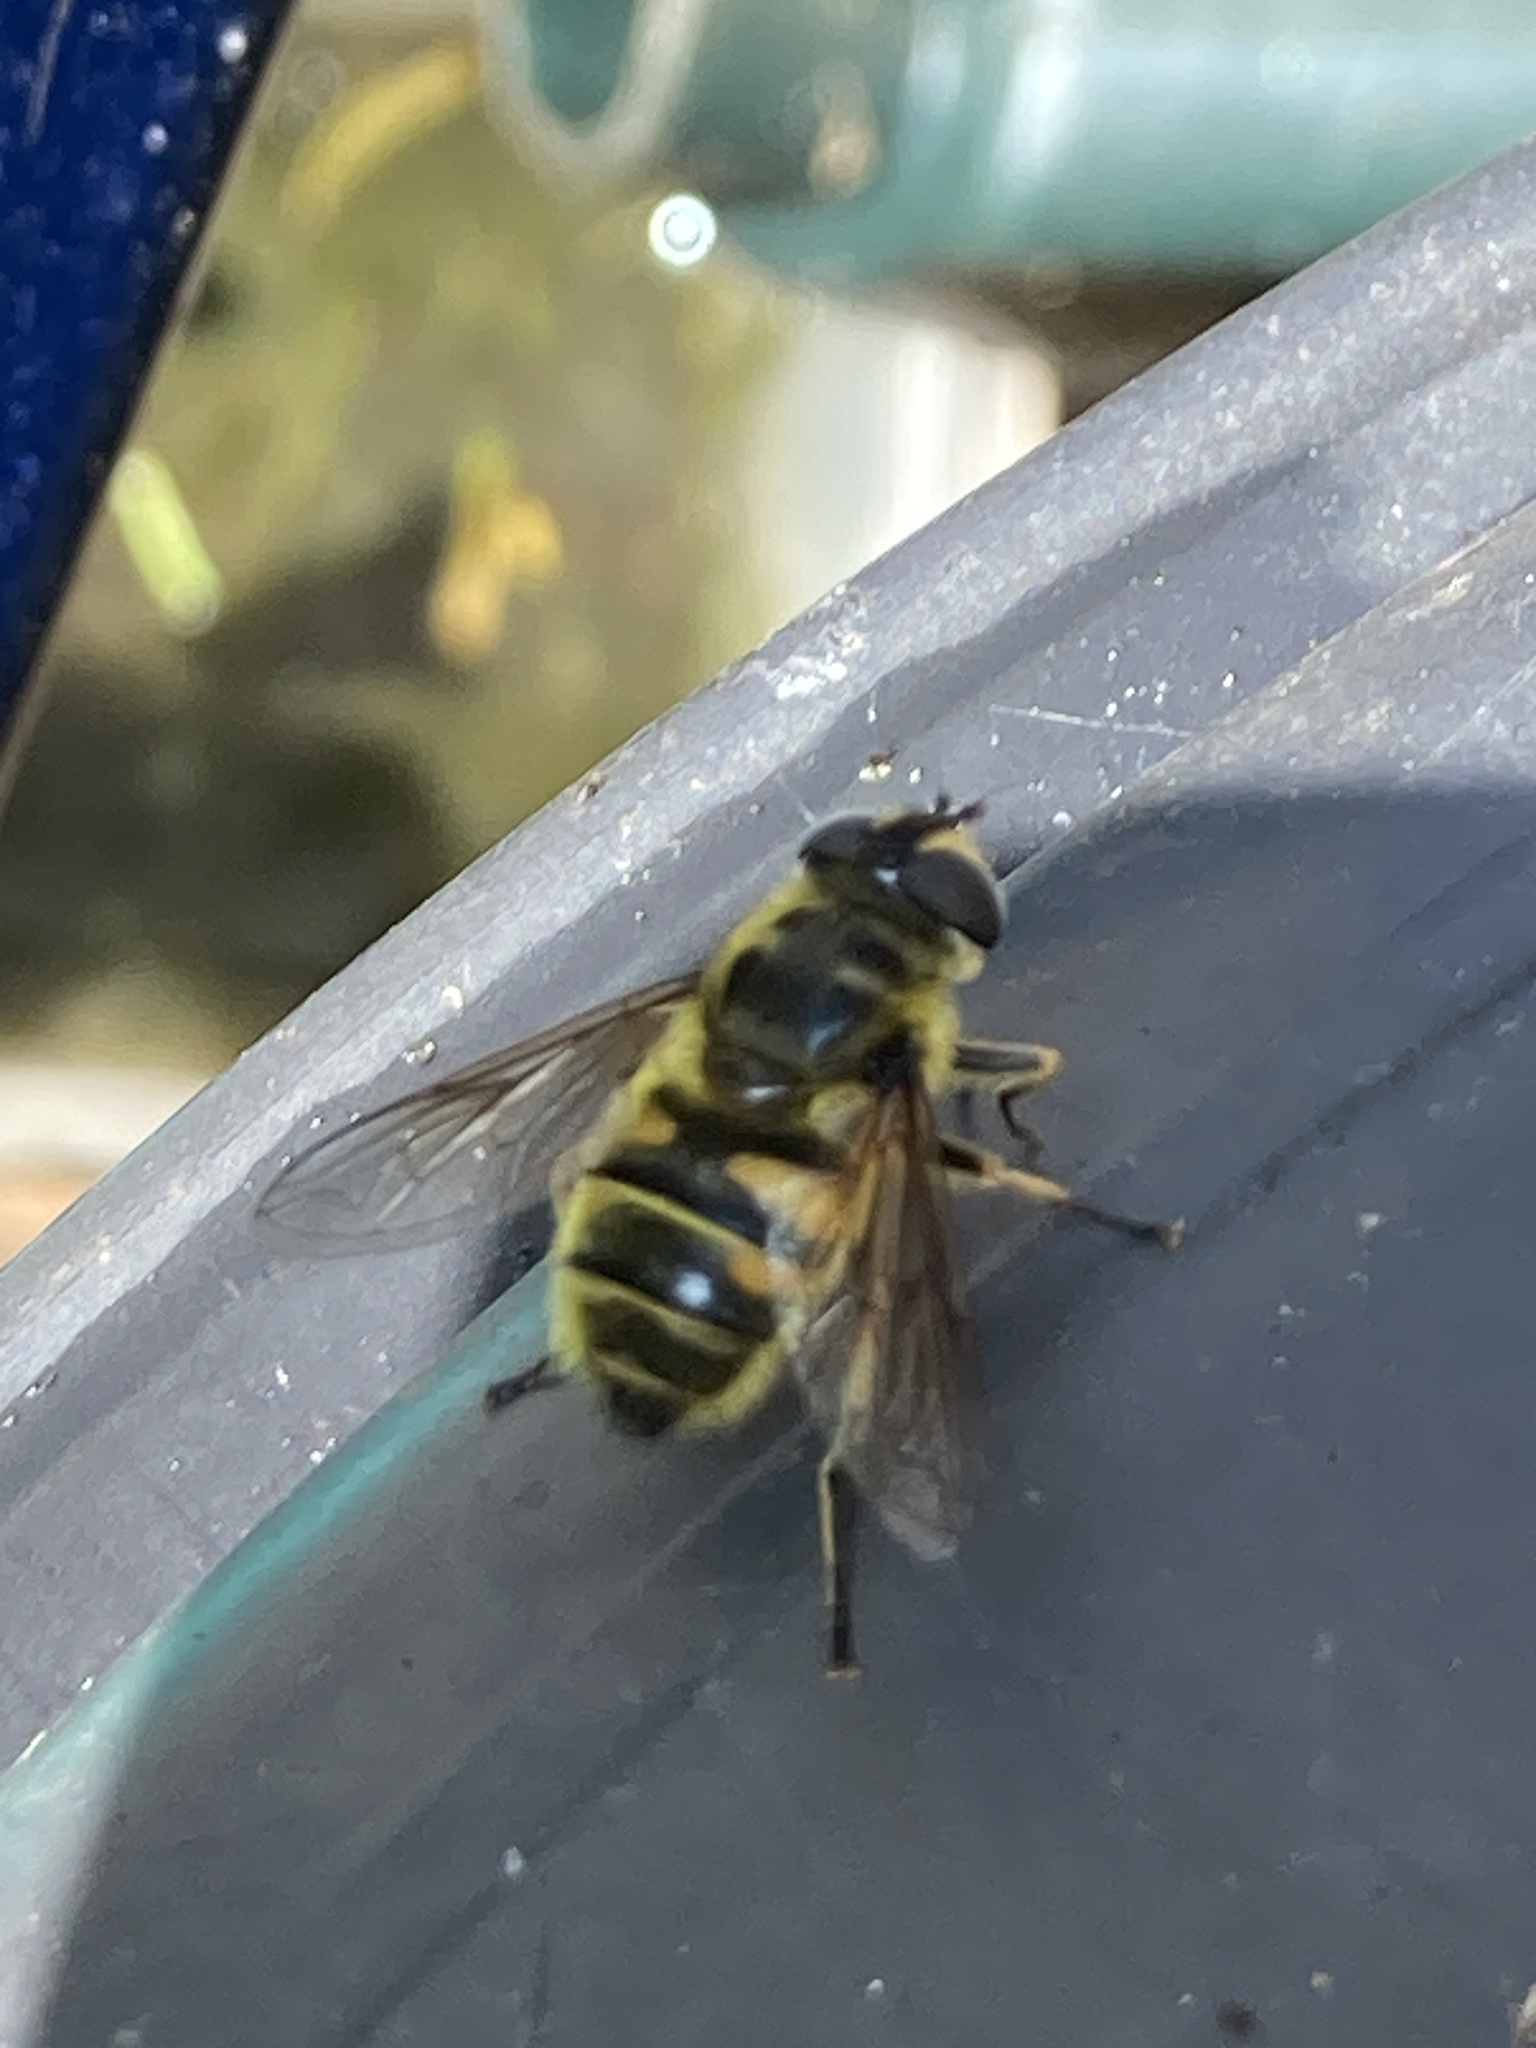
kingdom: Animalia
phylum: Arthropoda
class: Insecta
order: Diptera
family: Syrphidae
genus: Myathropa
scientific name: Myathropa florea
